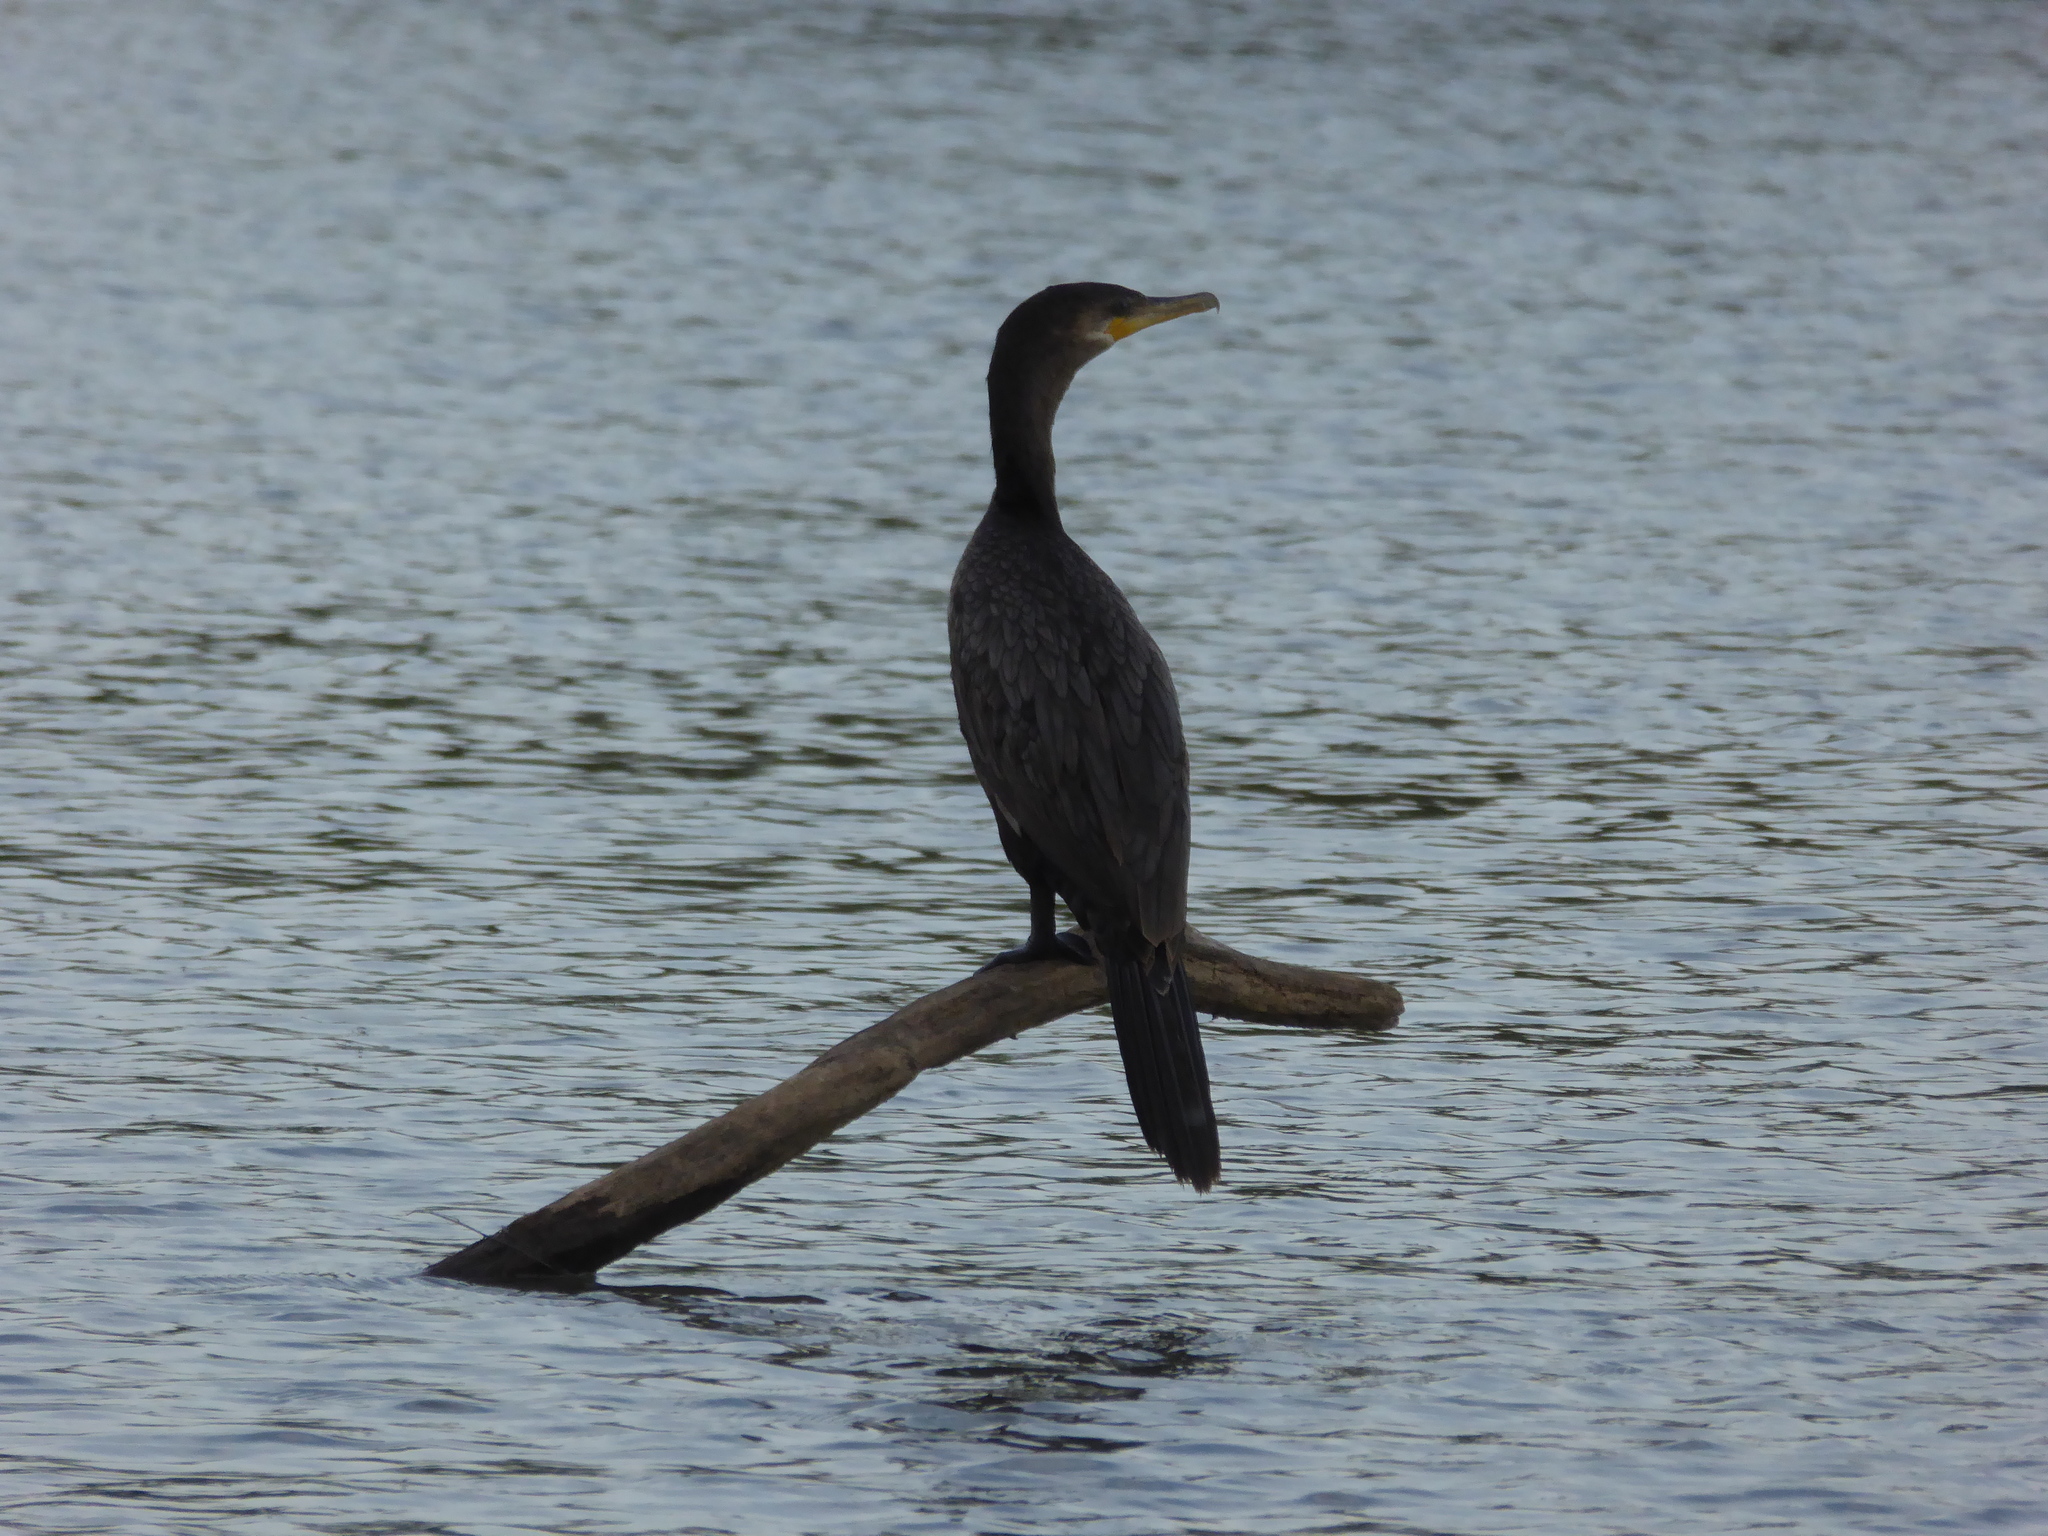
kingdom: Animalia
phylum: Chordata
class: Aves
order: Suliformes
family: Phalacrocoracidae
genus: Phalacrocorax
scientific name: Phalacrocorax brasilianus
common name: Neotropic cormorant
